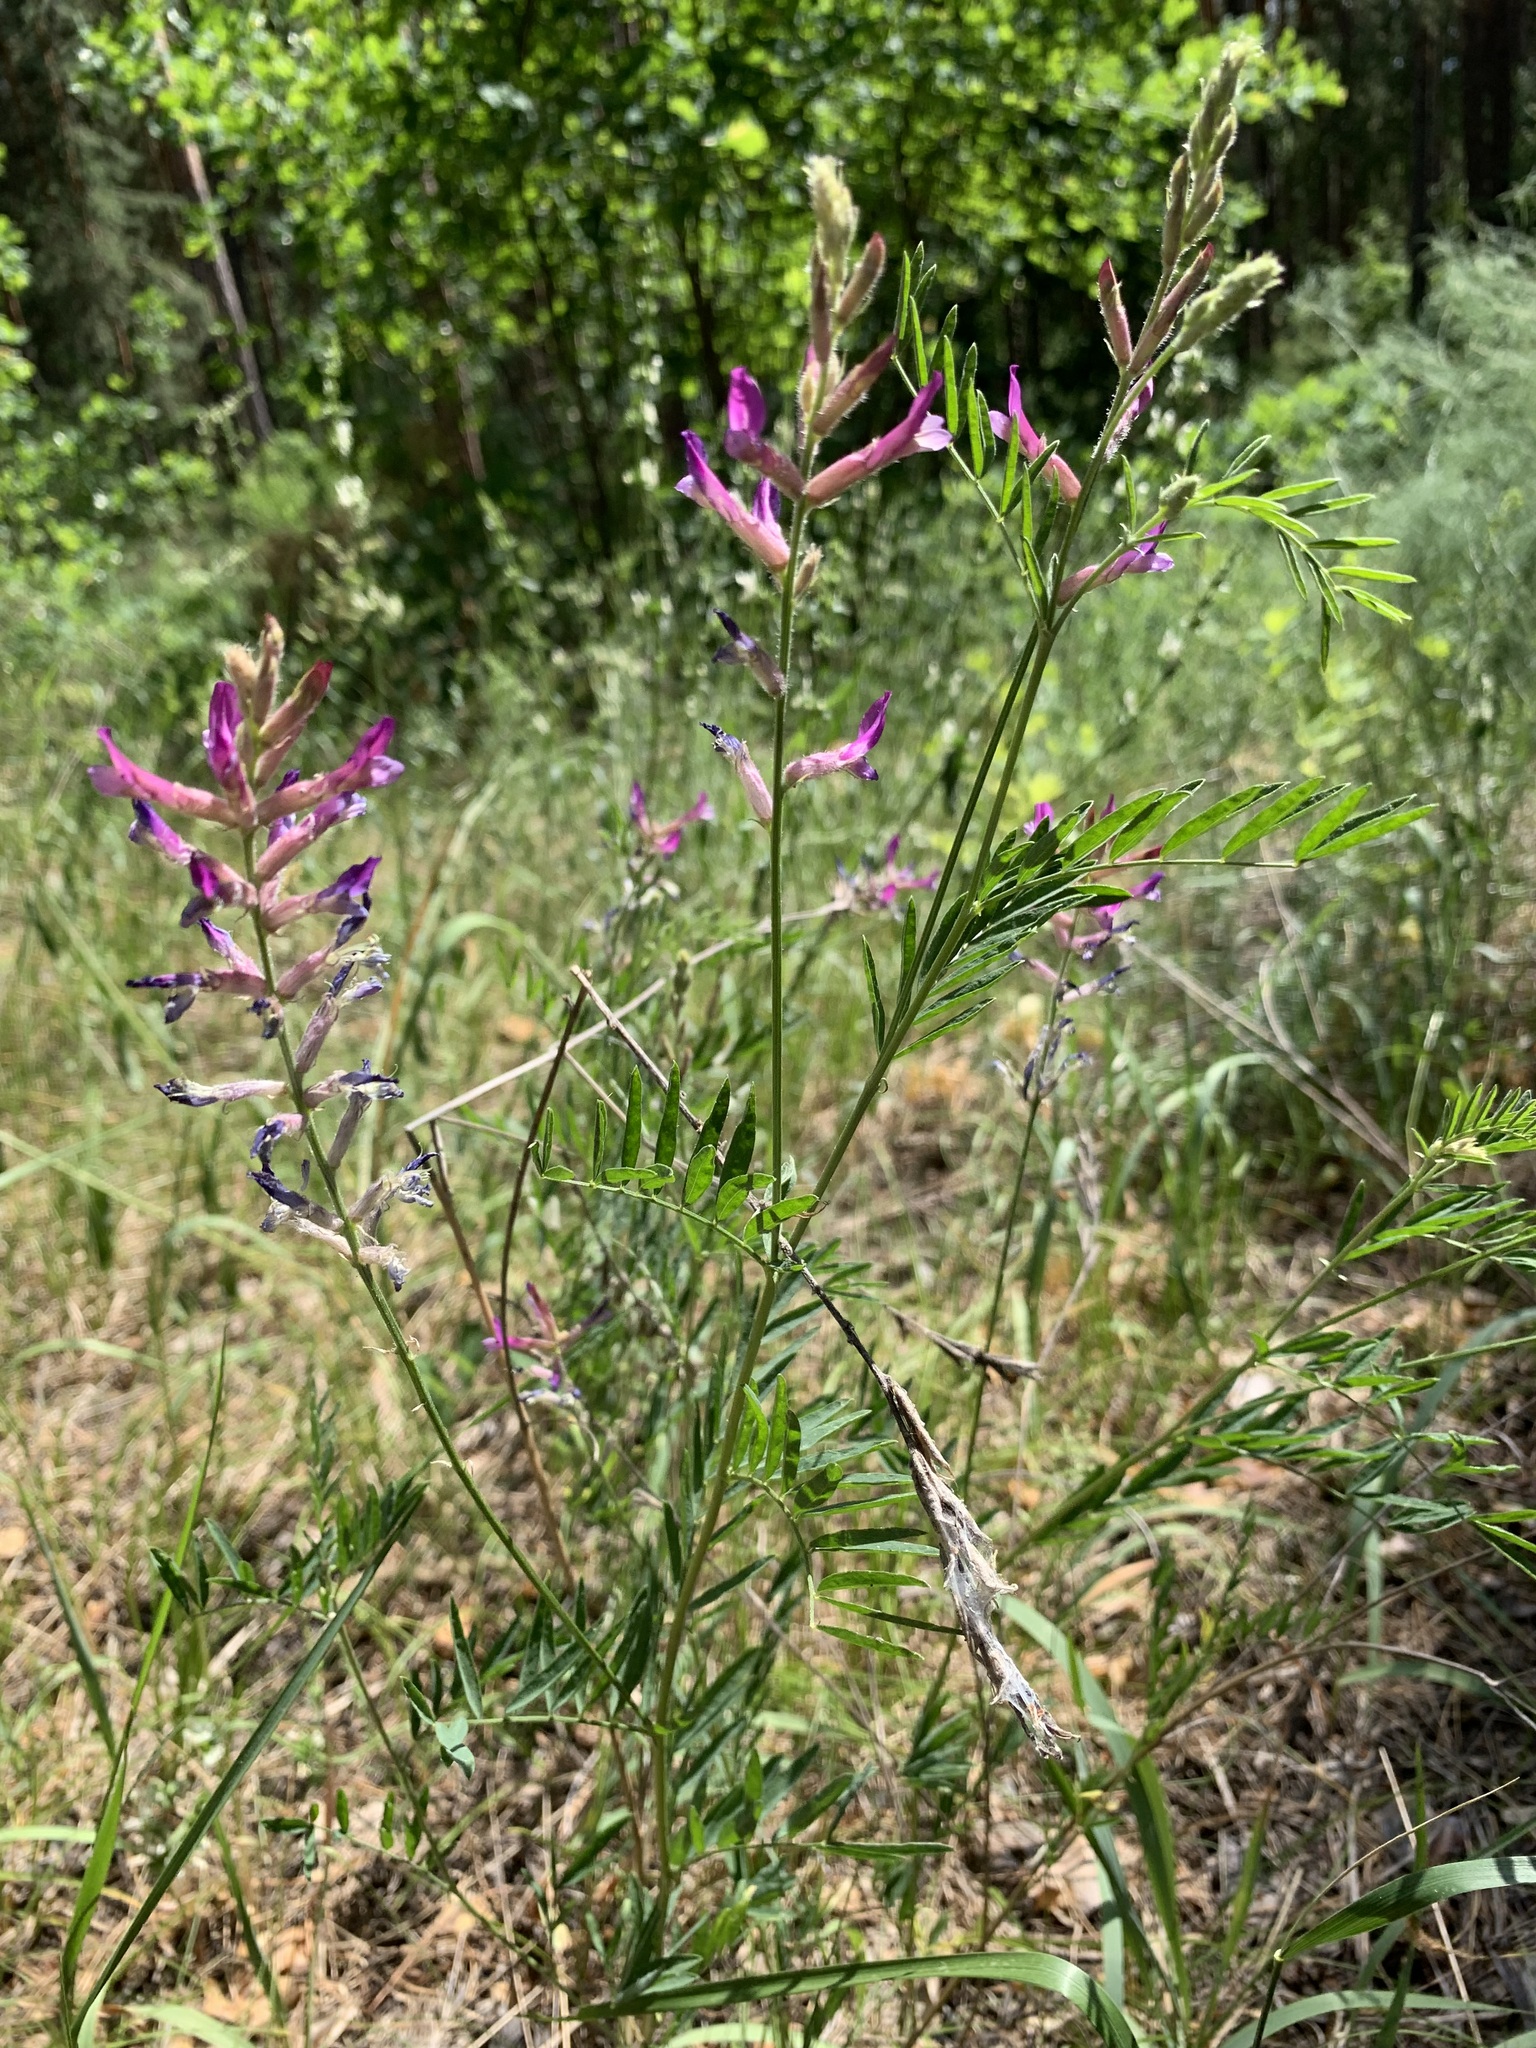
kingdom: Plantae
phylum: Tracheophyta
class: Magnoliopsida
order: Fabales
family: Fabaceae
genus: Astragalus
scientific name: Astragalus varius
